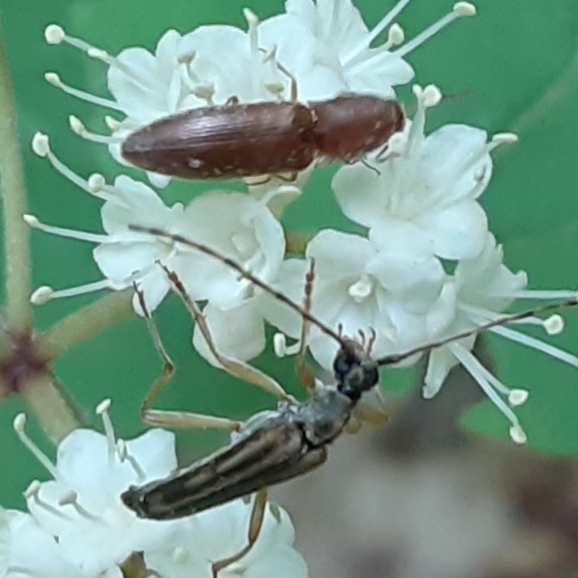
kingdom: Animalia
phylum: Arthropoda
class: Insecta
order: Coleoptera
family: Cerambycidae
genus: Analeptura
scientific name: Analeptura lineola
